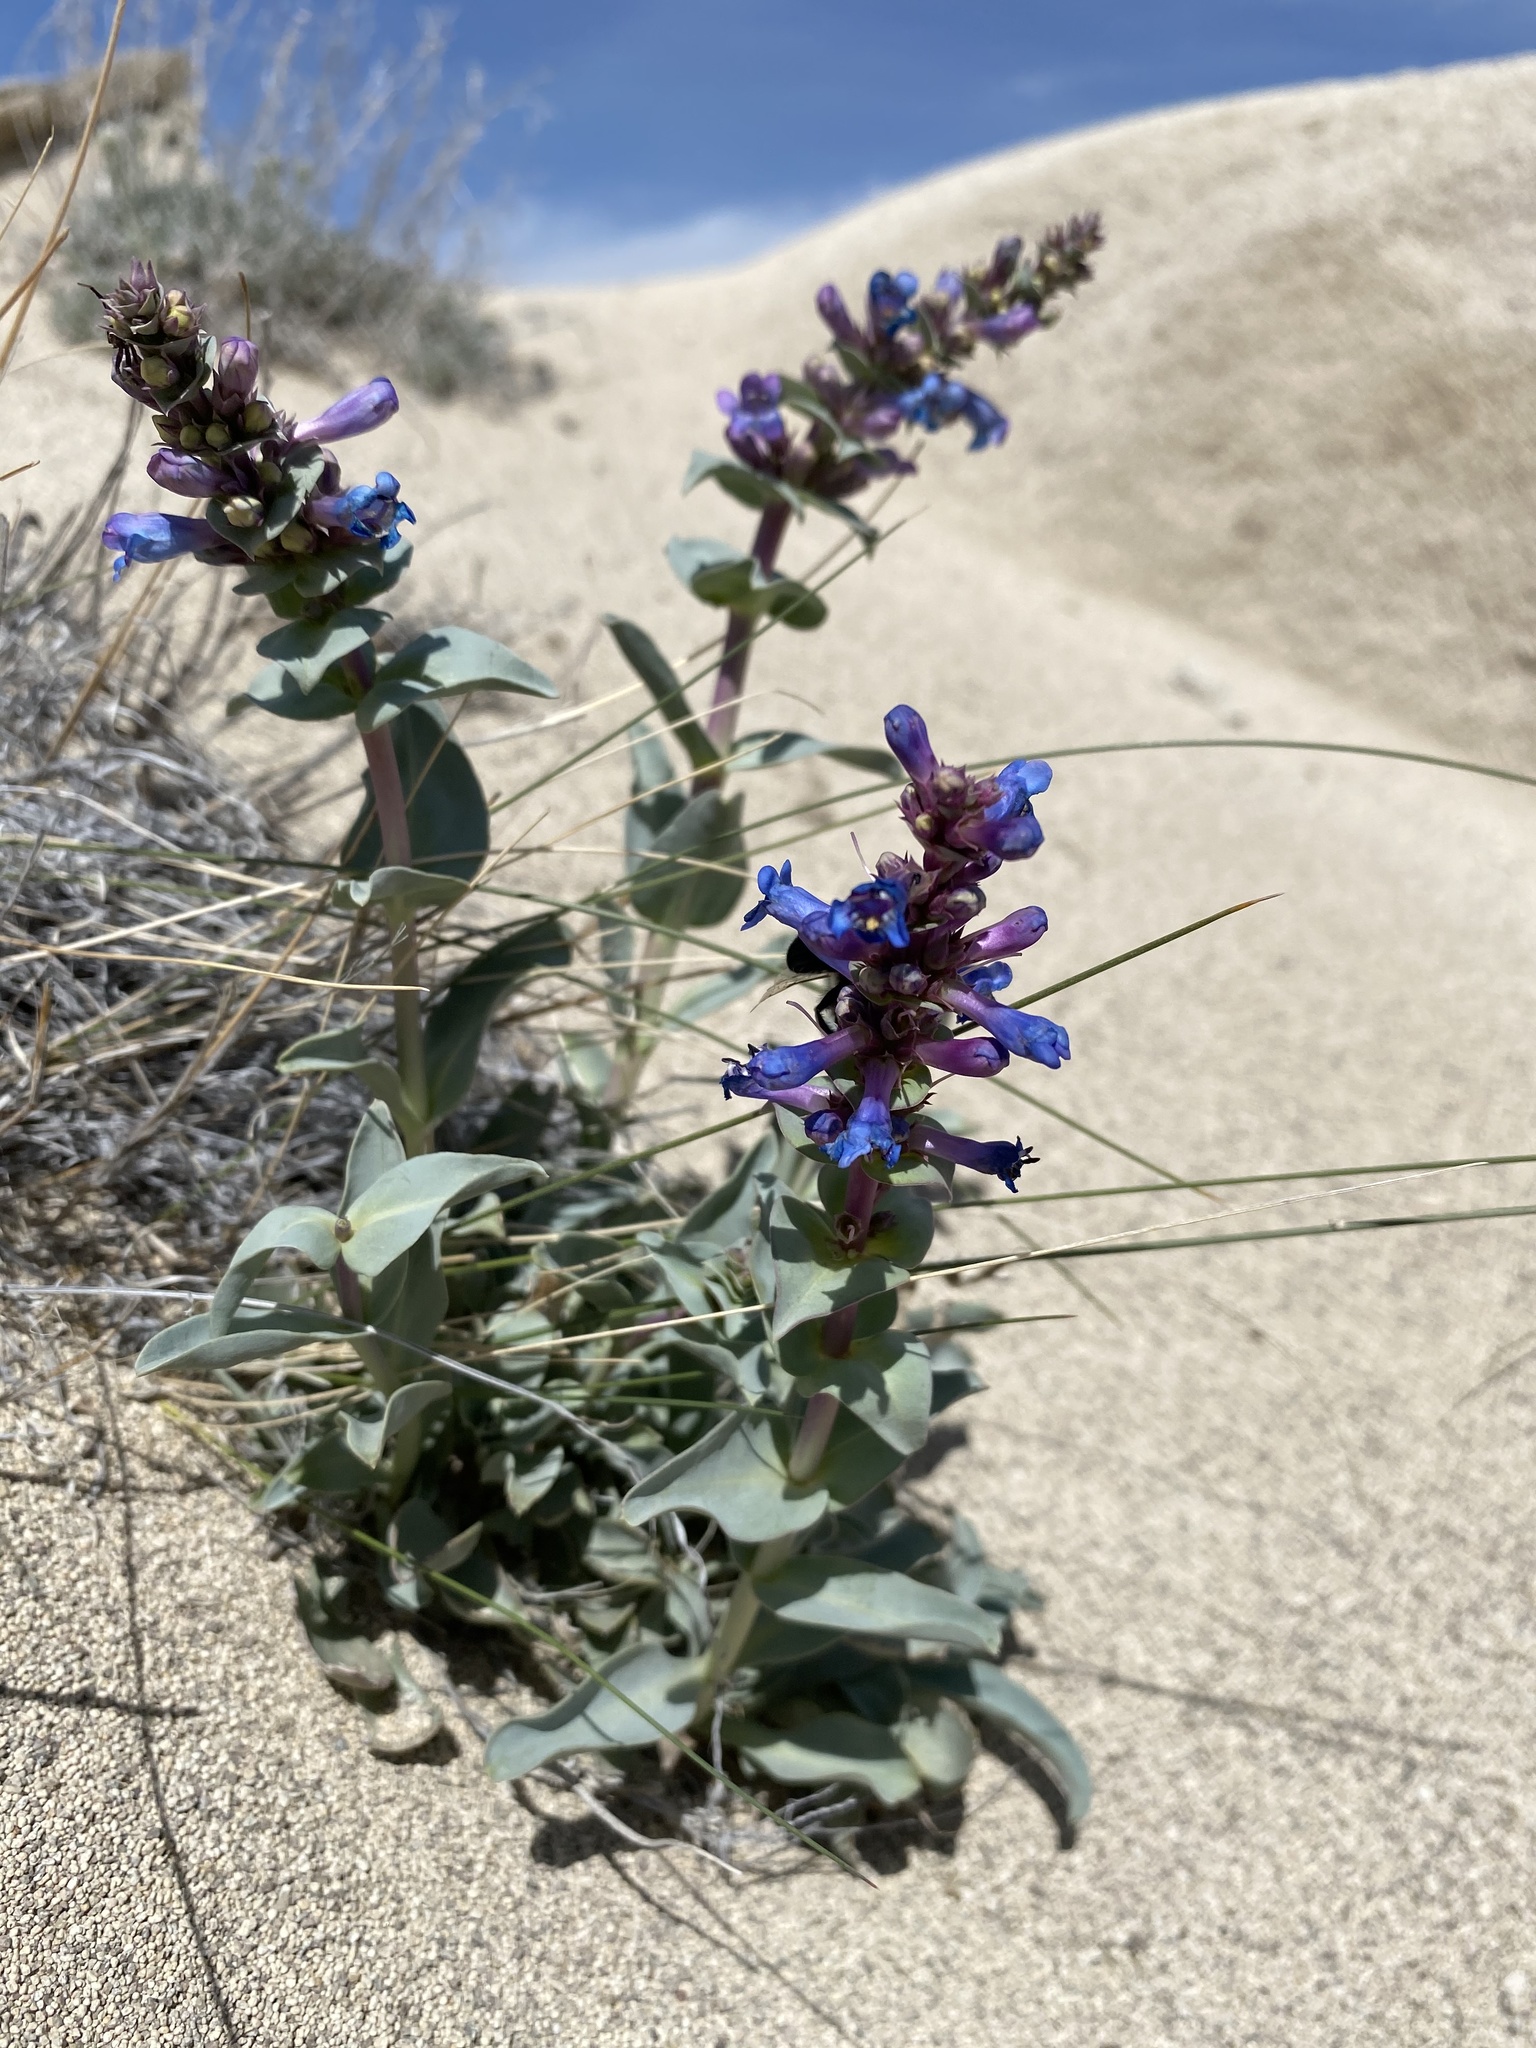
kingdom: Plantae
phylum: Tracheophyta
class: Magnoliopsida
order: Lamiales
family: Plantaginaceae
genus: Penstemon
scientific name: Penstemon acuminatus
